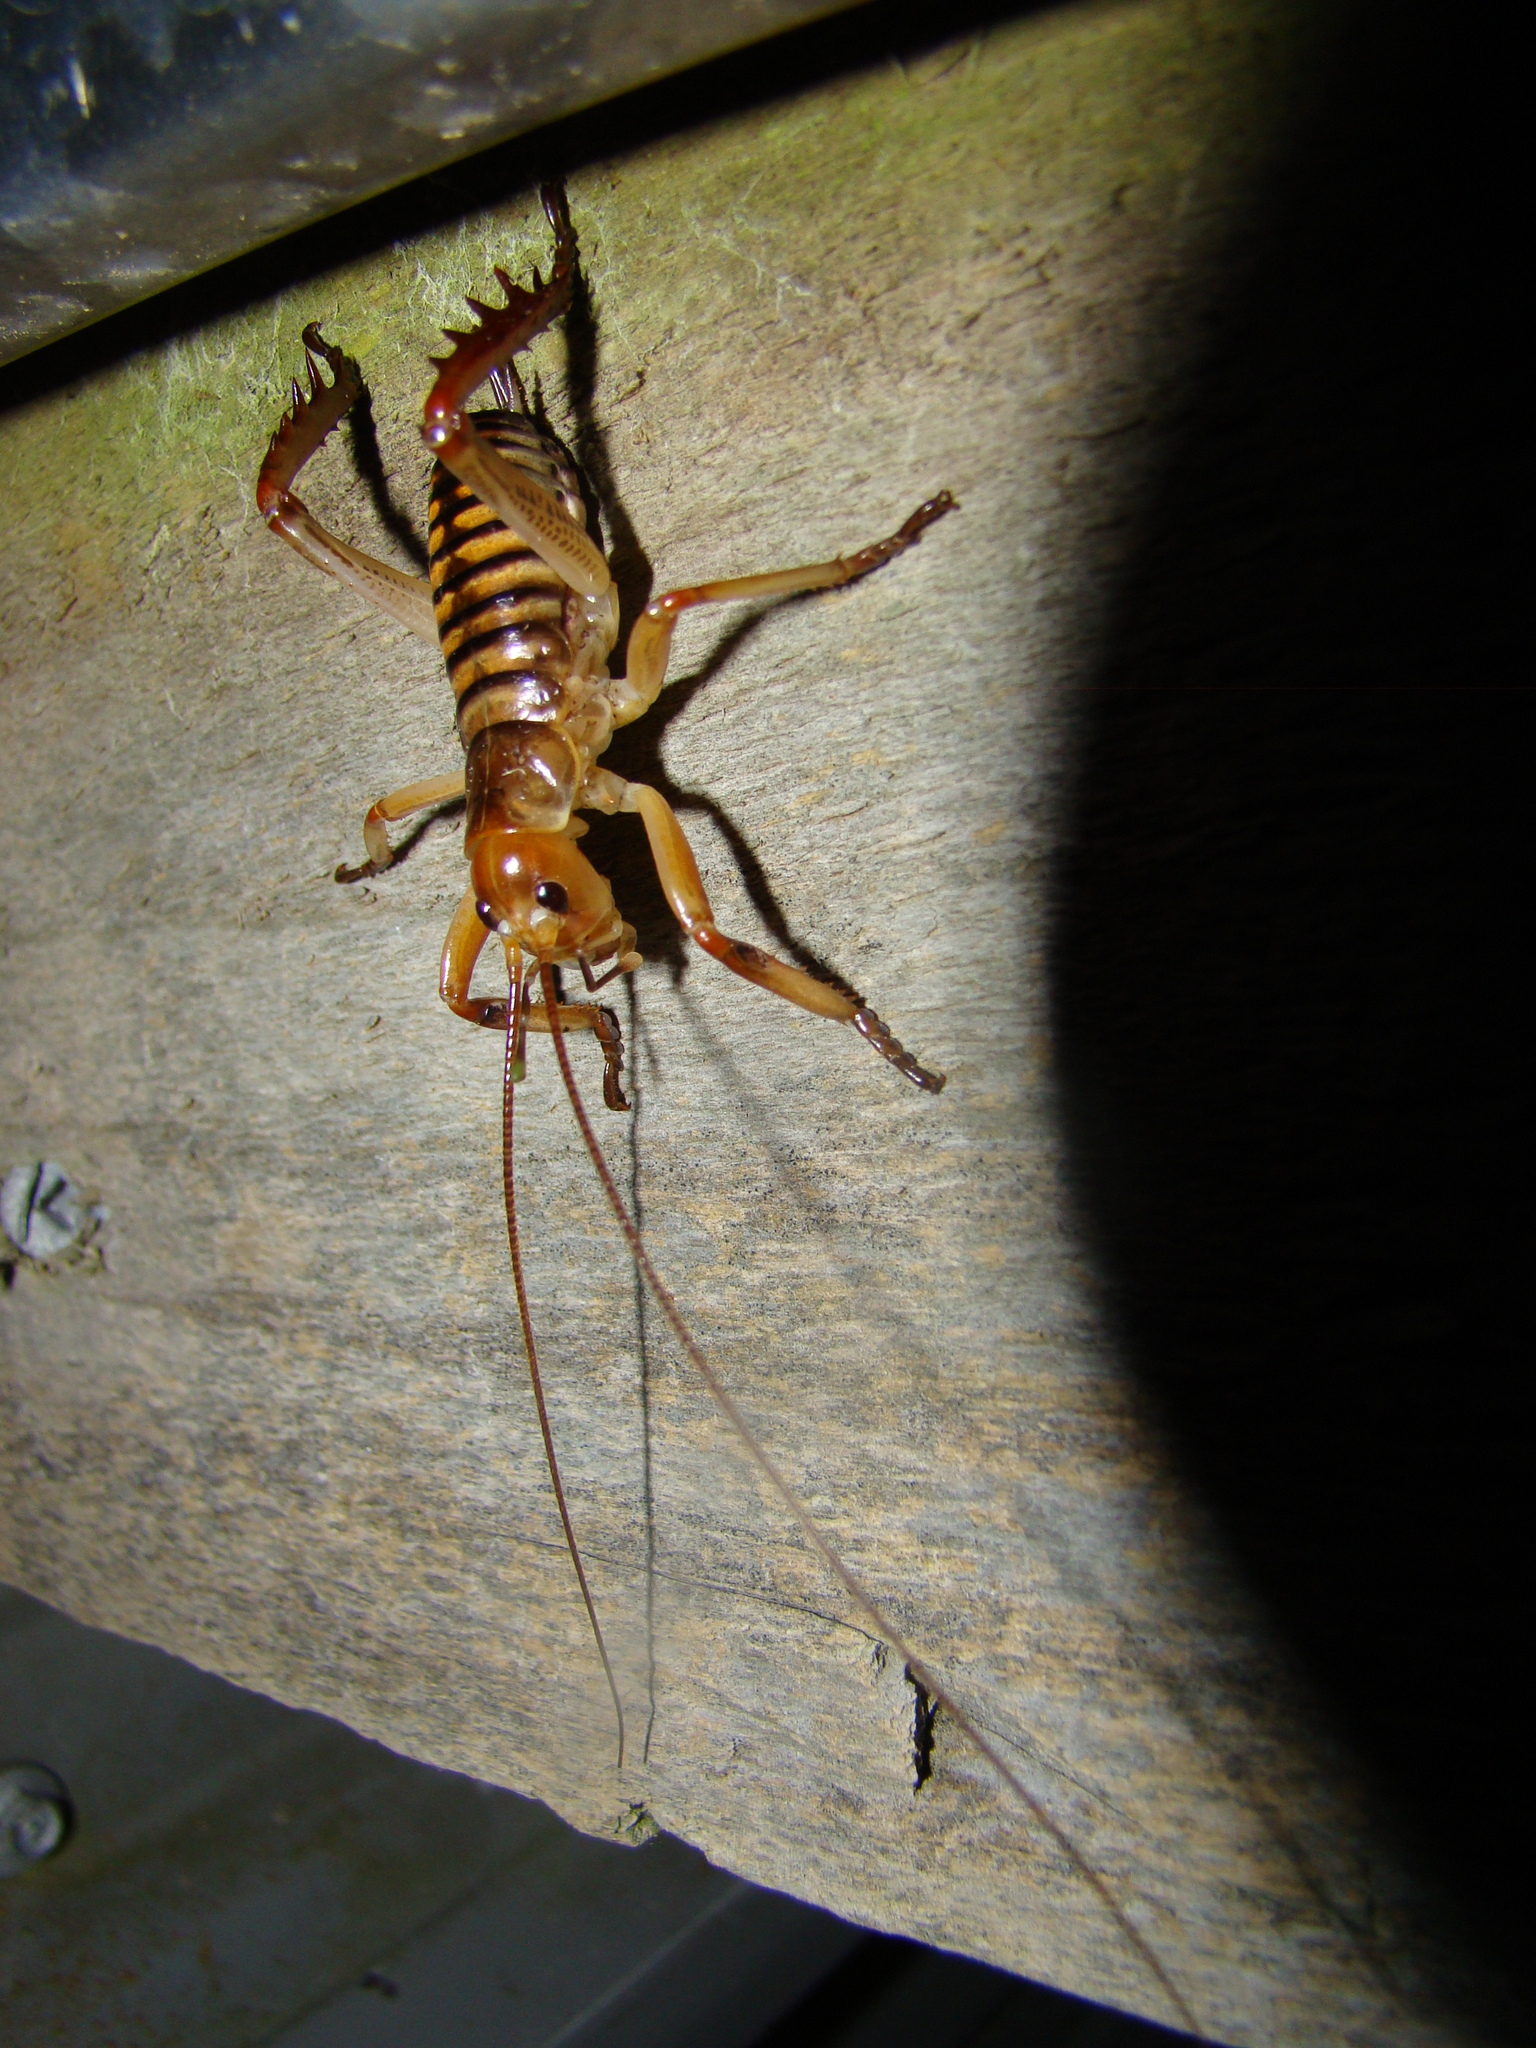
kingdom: Animalia
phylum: Arthropoda
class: Insecta
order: Orthoptera
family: Anostostomatidae
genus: Hemideina
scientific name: Hemideina crassidens
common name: Wellington tree weta
